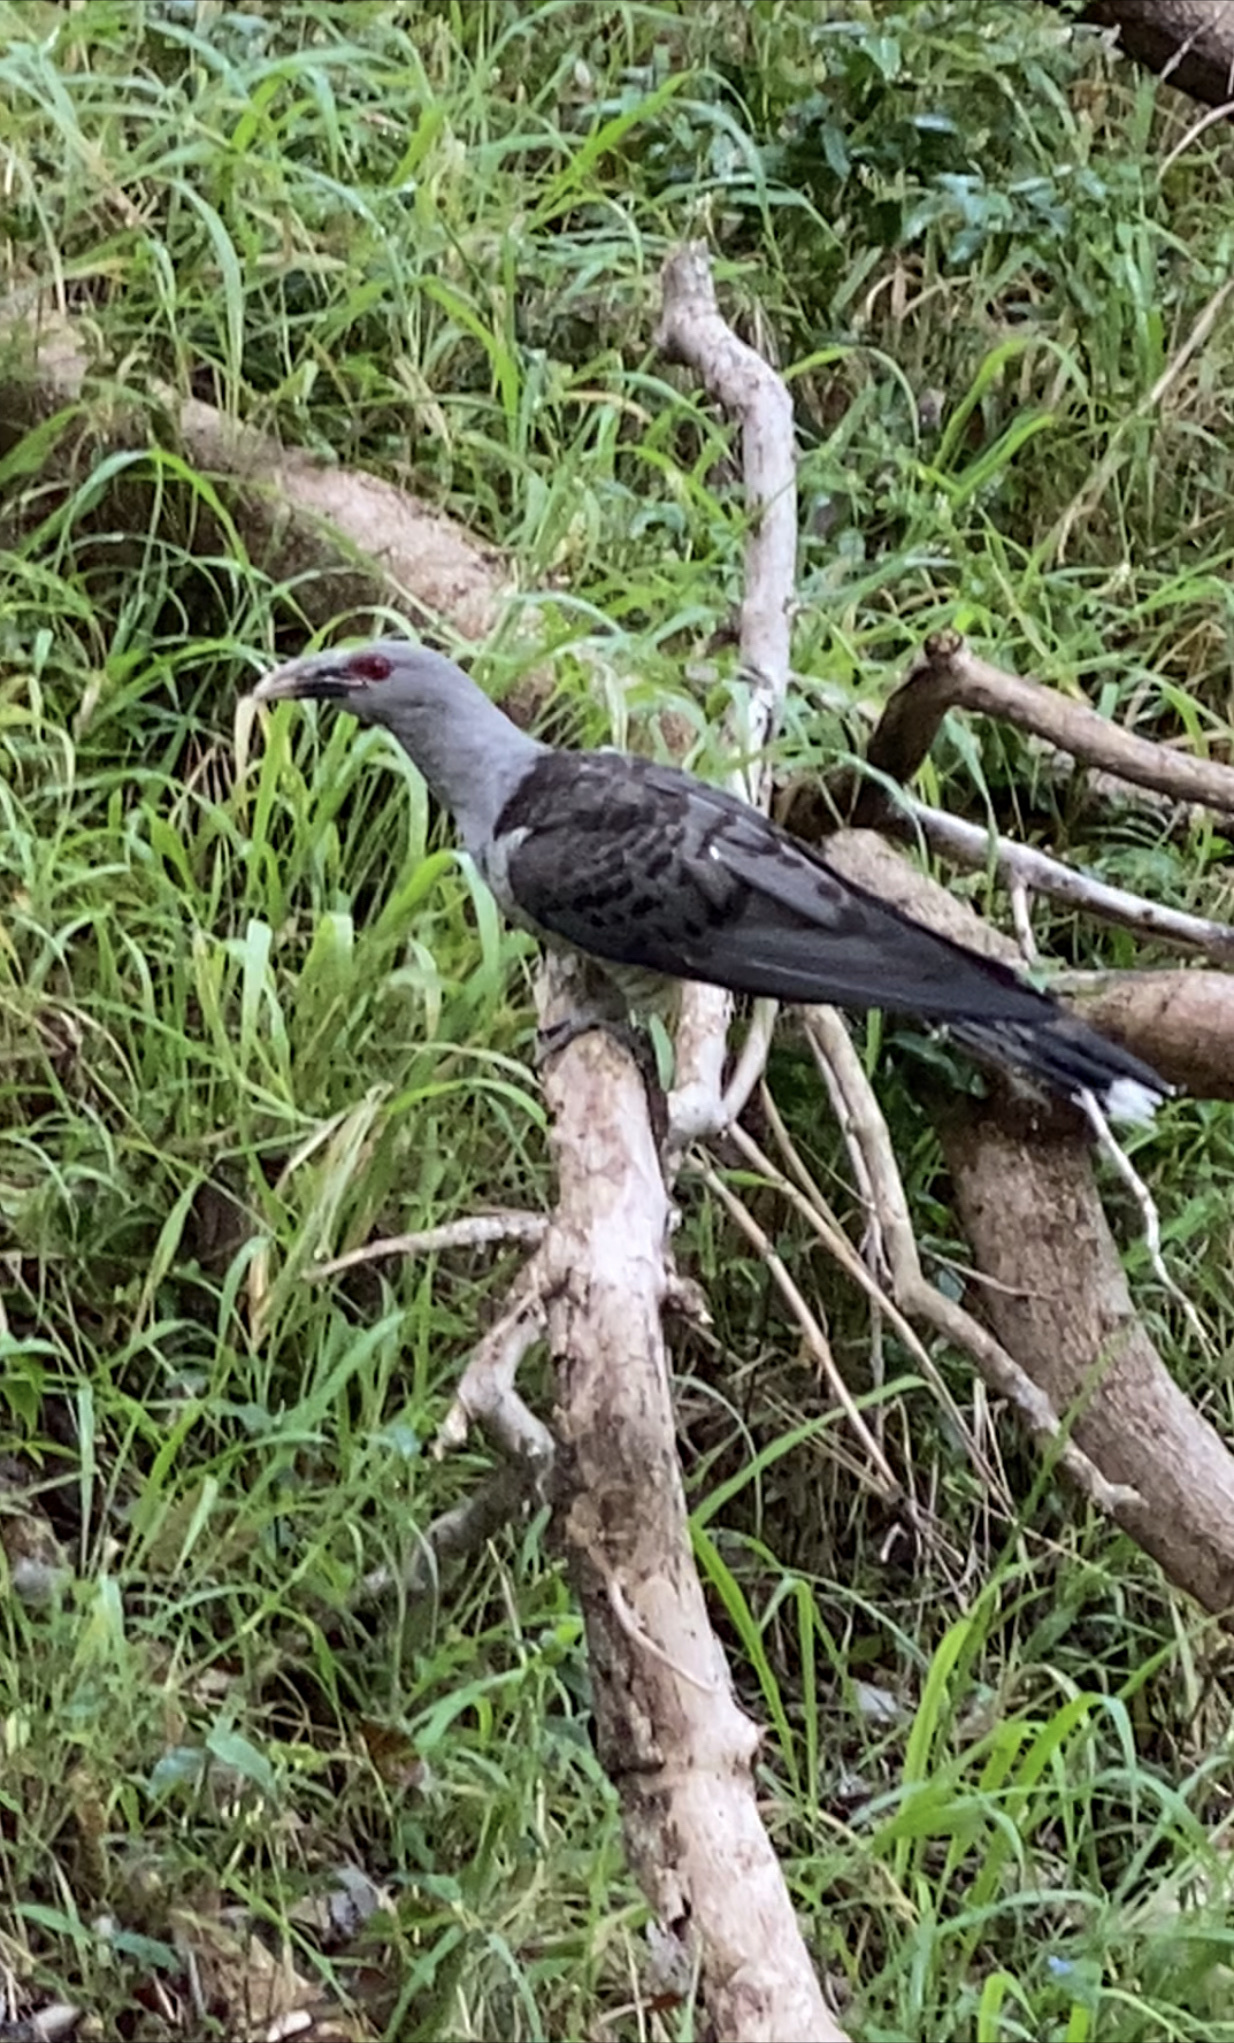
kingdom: Animalia
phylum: Chordata
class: Aves
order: Cuculiformes
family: Cuculidae
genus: Scythrops
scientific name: Scythrops novaehollandiae
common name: Channel-billed cuckoo
